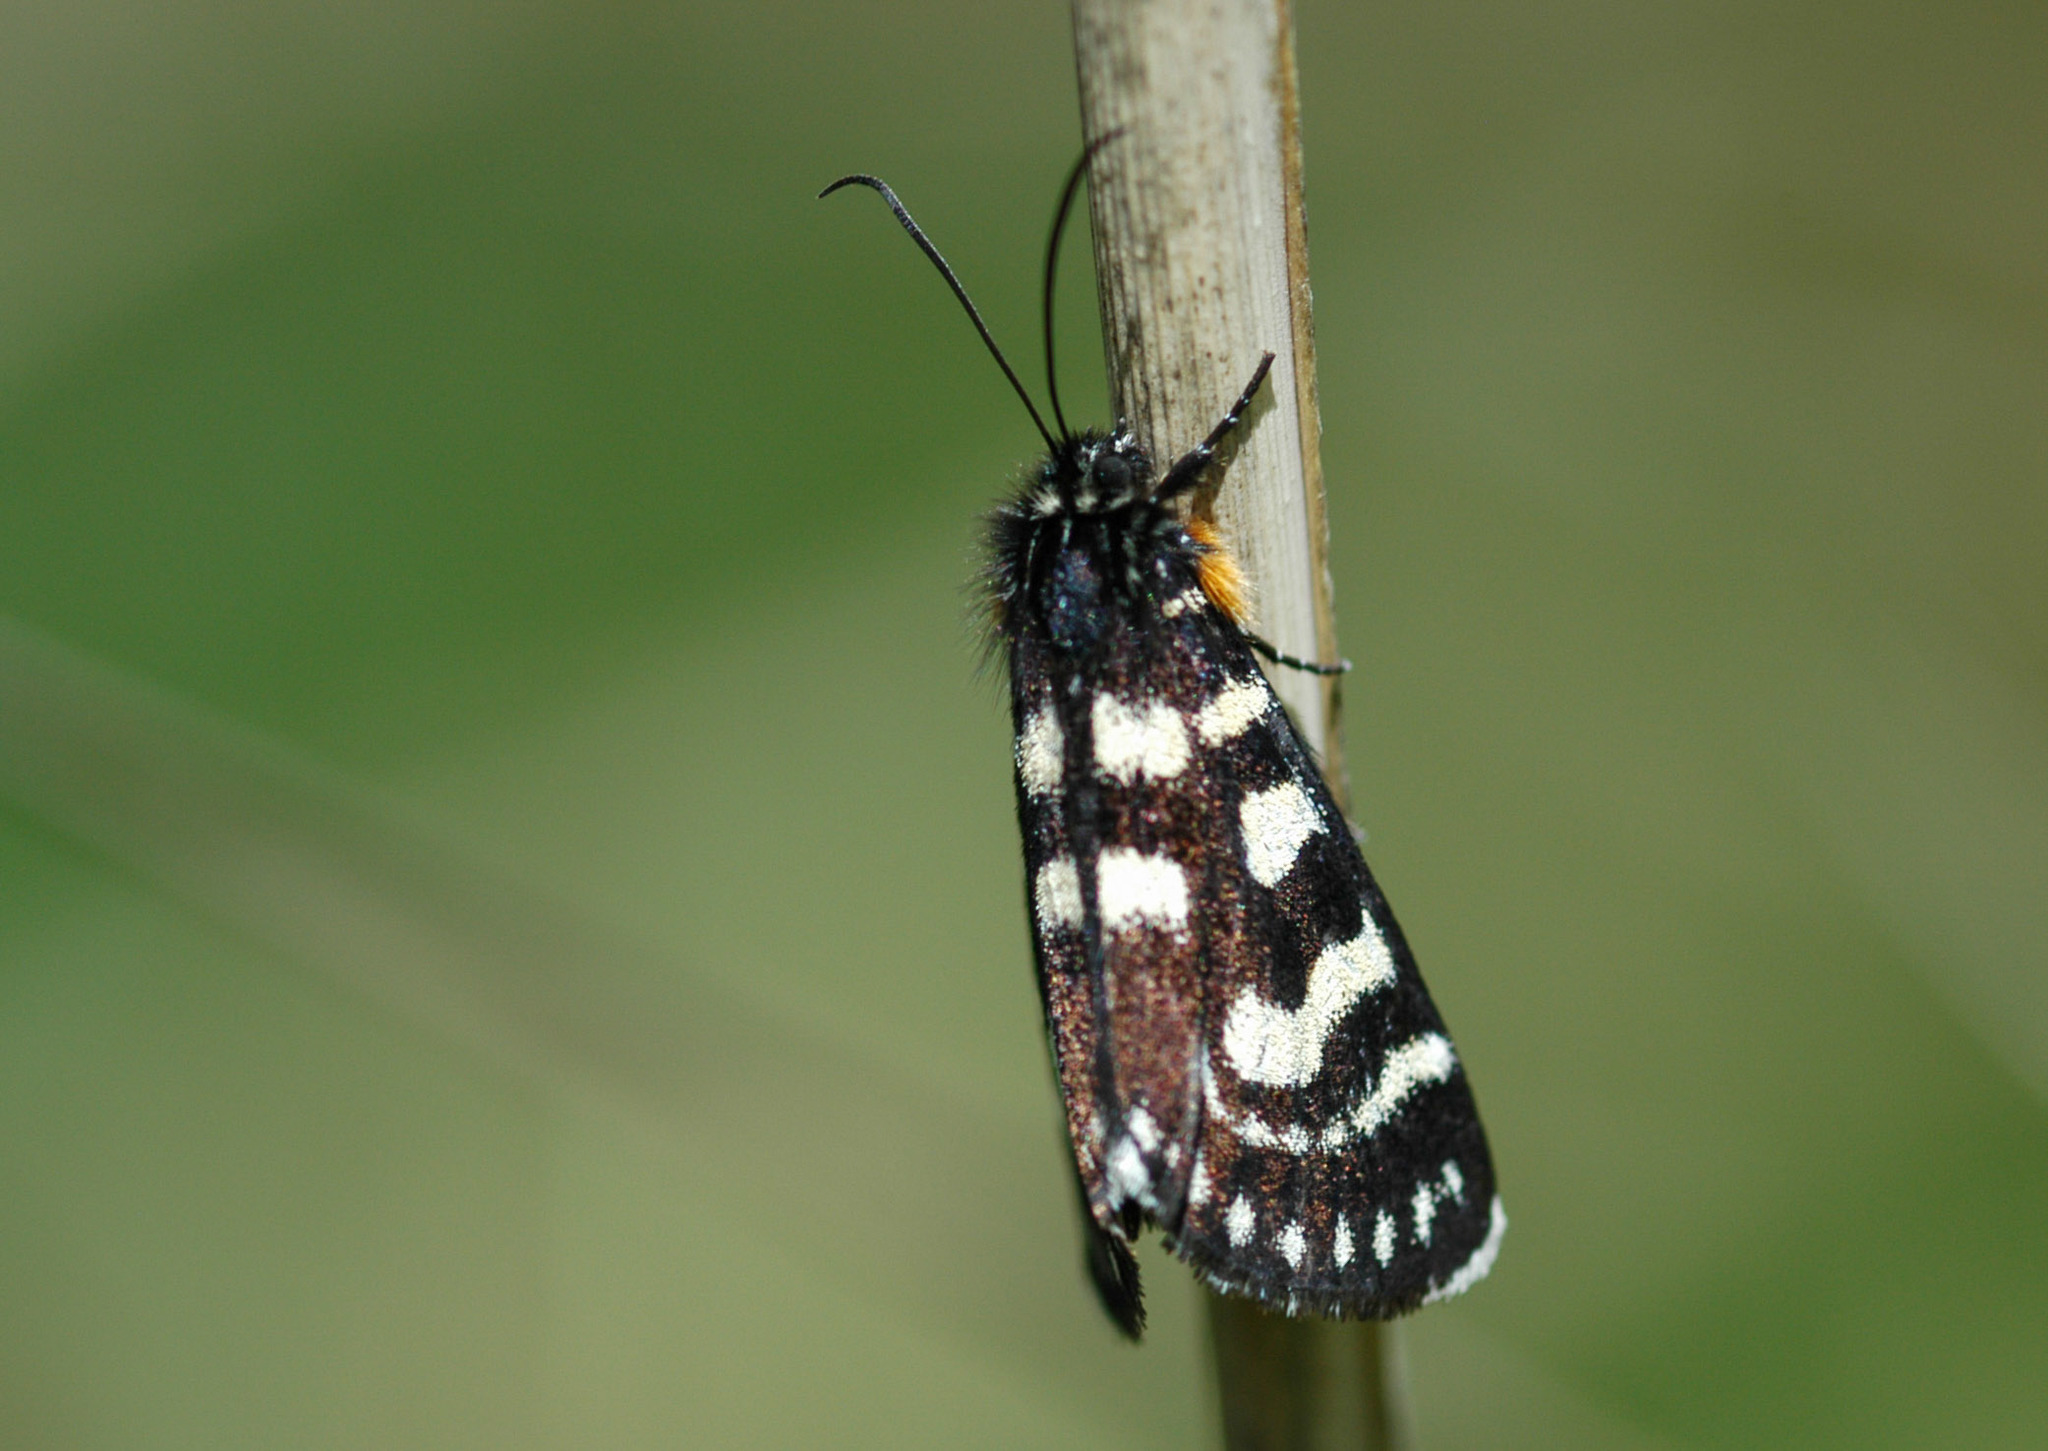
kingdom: Animalia
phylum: Arthropoda
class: Insecta
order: Lepidoptera
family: Noctuidae
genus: Phalaenoides
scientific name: Phalaenoides tristifica
